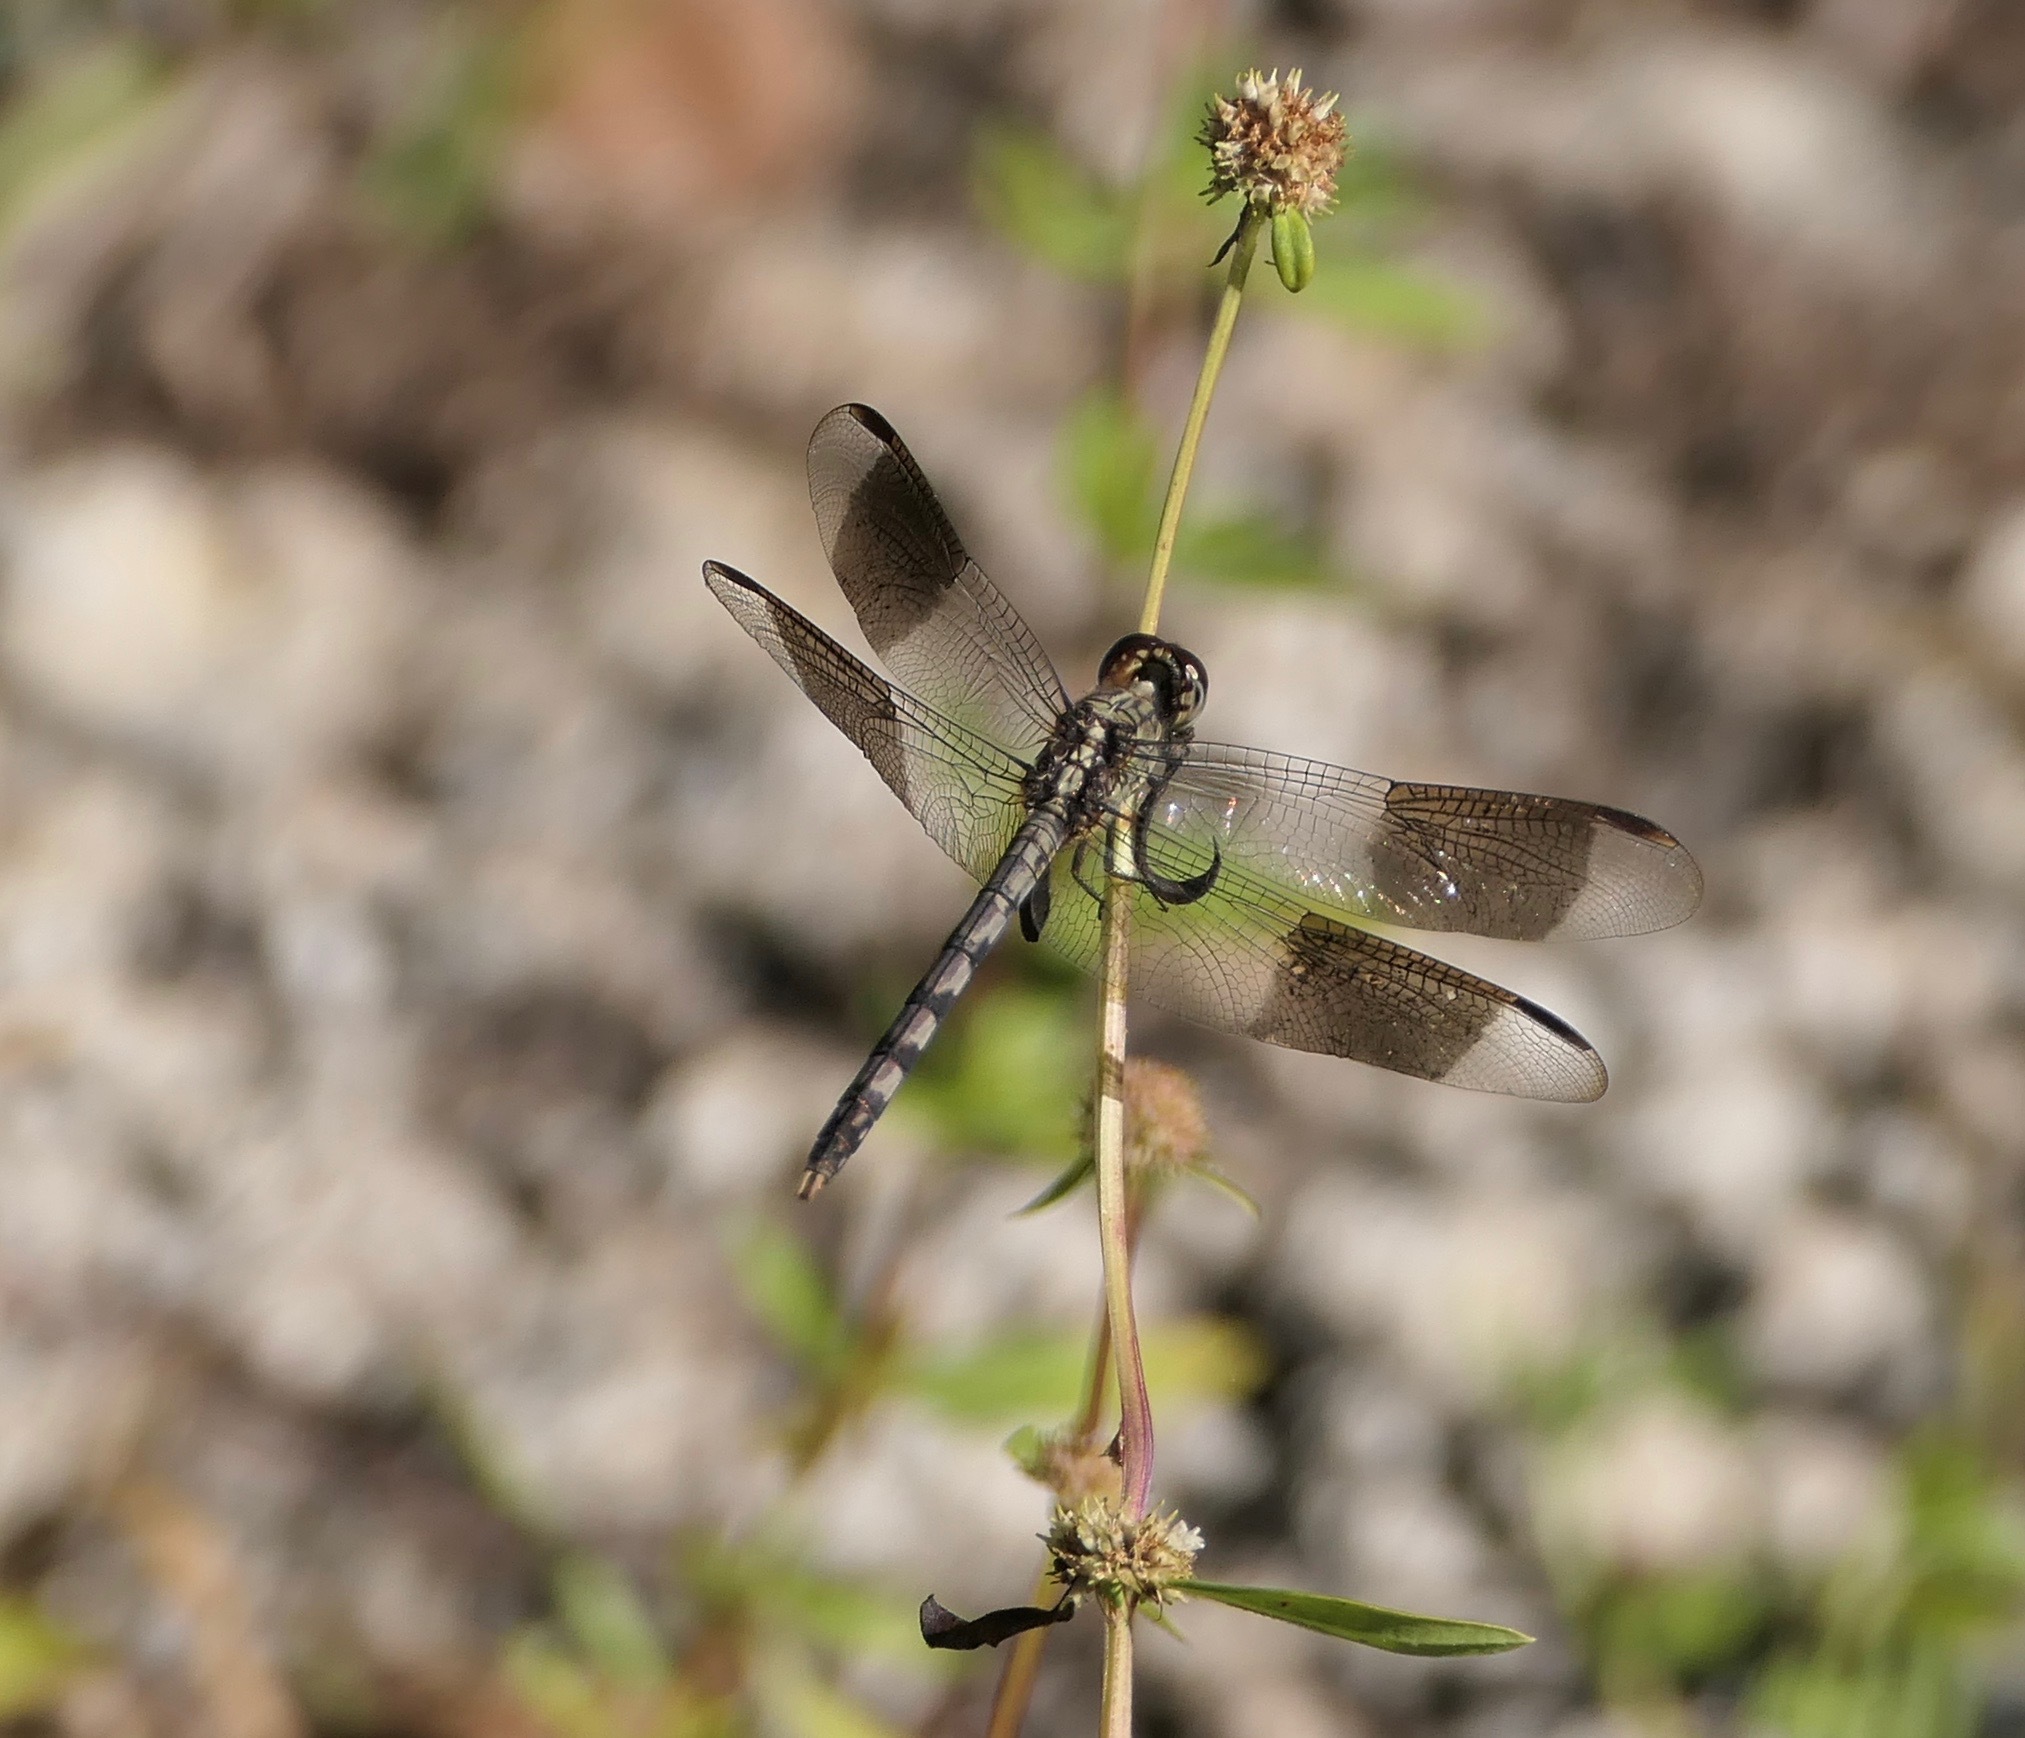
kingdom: Animalia
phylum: Arthropoda
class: Insecta
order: Odonata
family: Libellulidae
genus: Erythrodiplax
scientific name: Erythrodiplax umbrata
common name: Band-winged dragonlet
